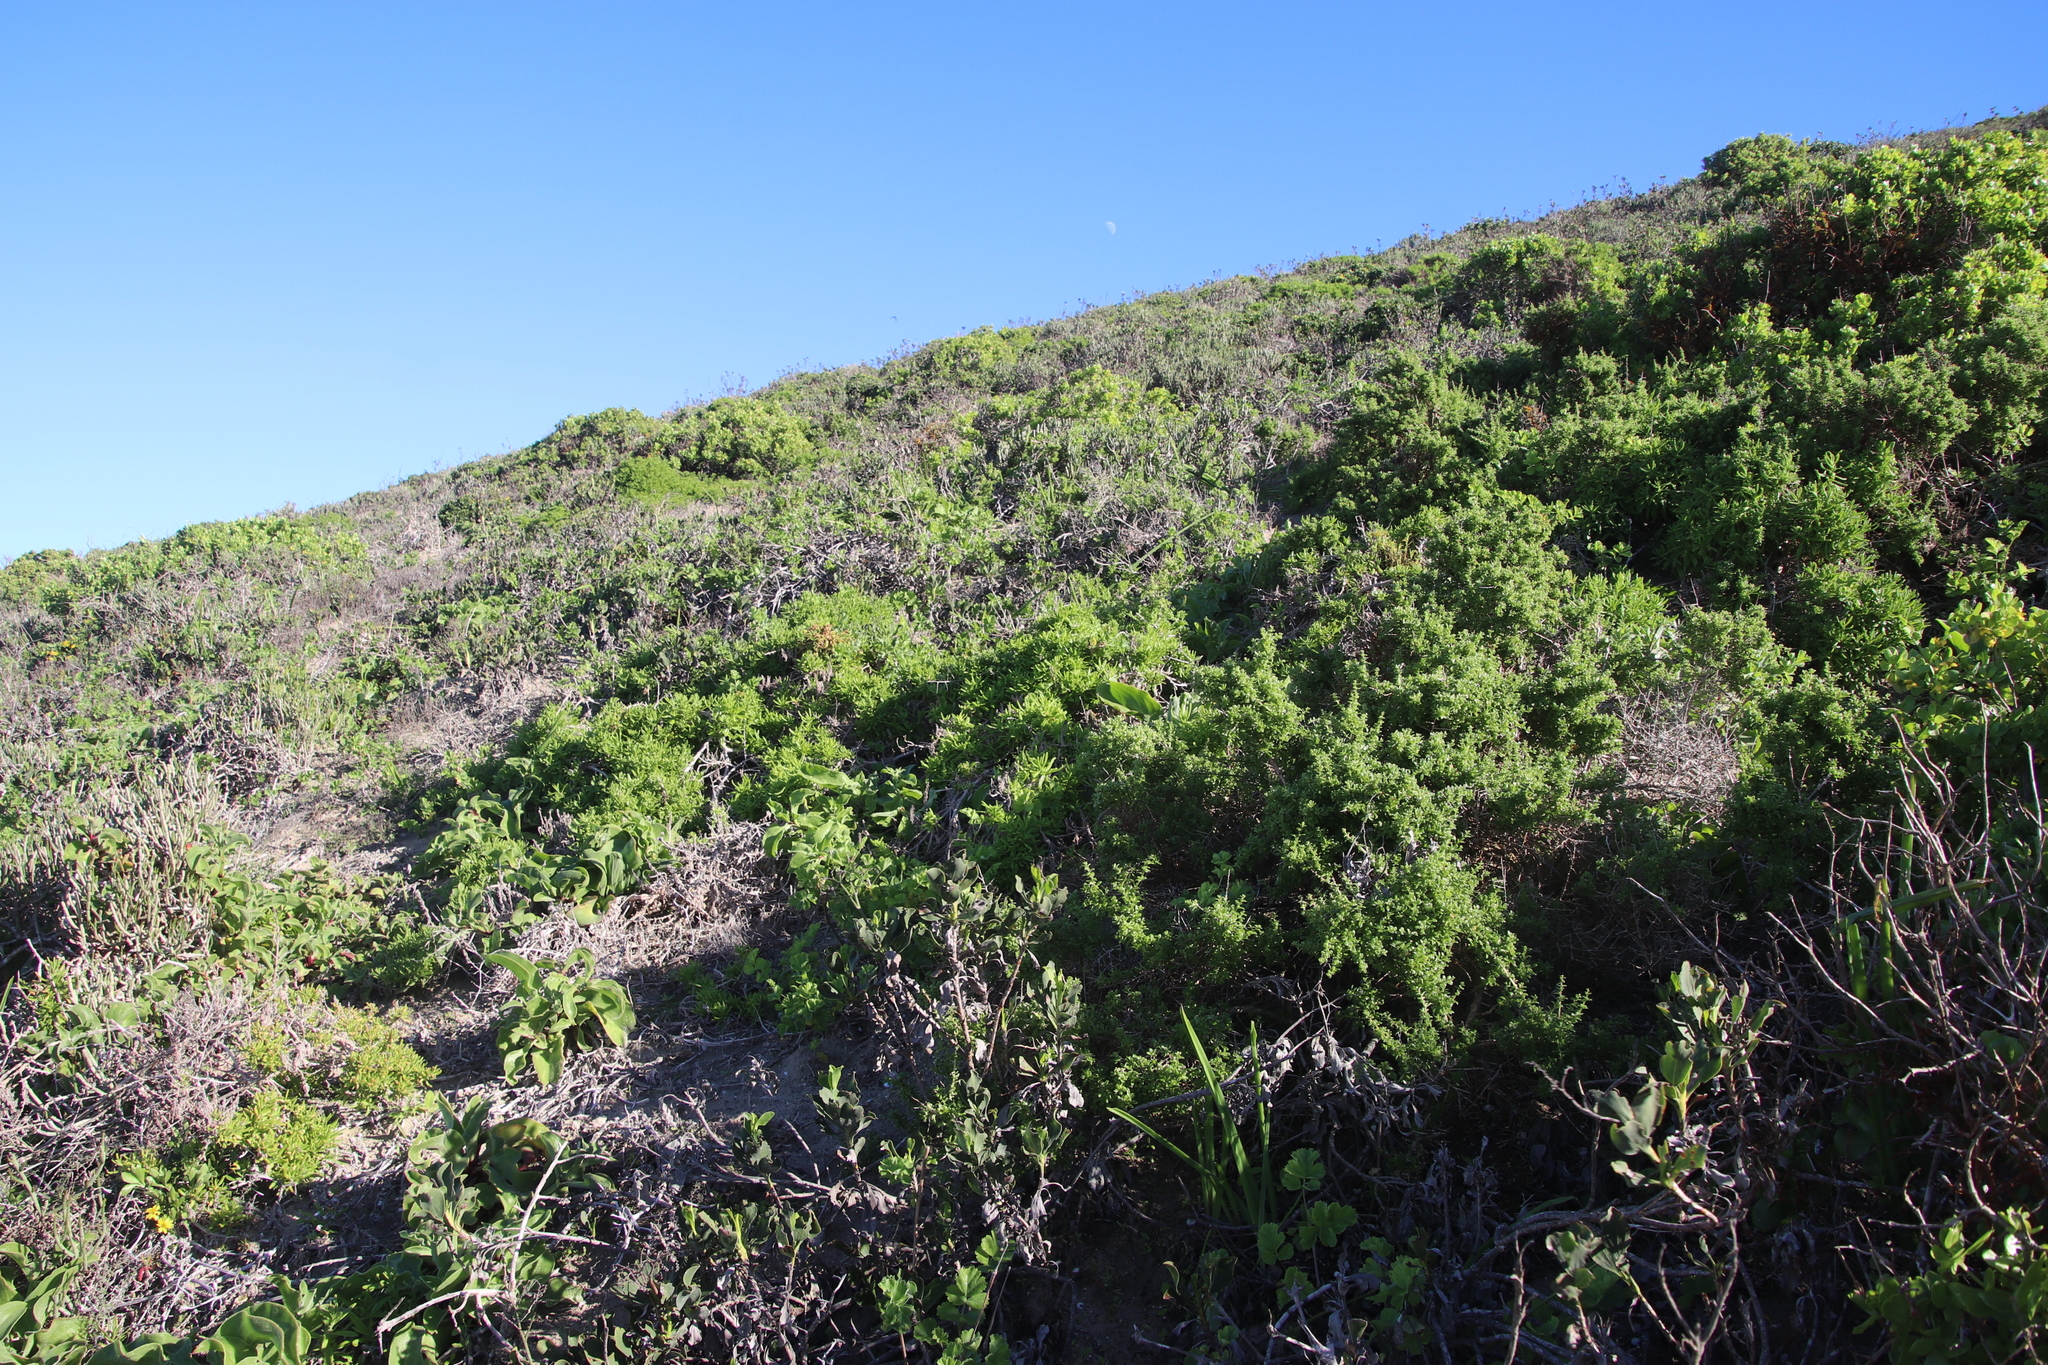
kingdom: Plantae
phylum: Tracheophyta
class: Magnoliopsida
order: Caryophyllales
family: Aizoaceae
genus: Tetragonia
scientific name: Tetragonia fruticosa
